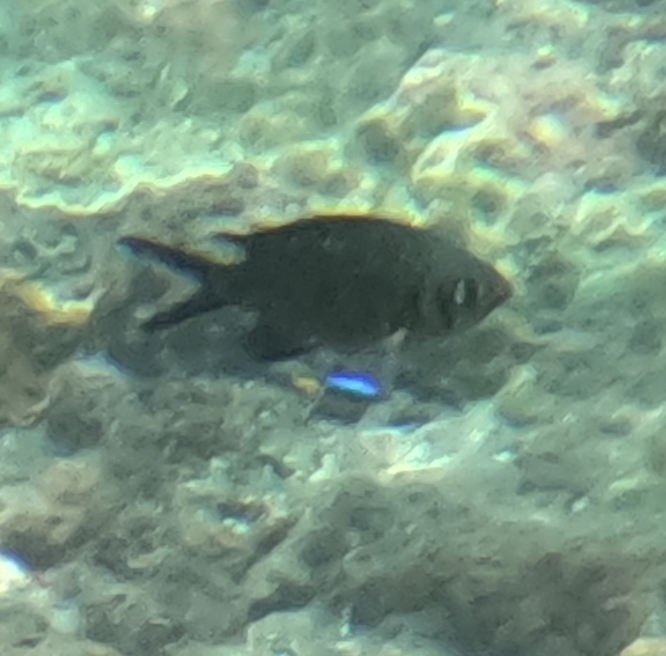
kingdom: Animalia
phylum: Chordata
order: Perciformes
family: Pomacentridae
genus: Chromis
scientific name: Chromis weberi
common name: Weber's chromis
